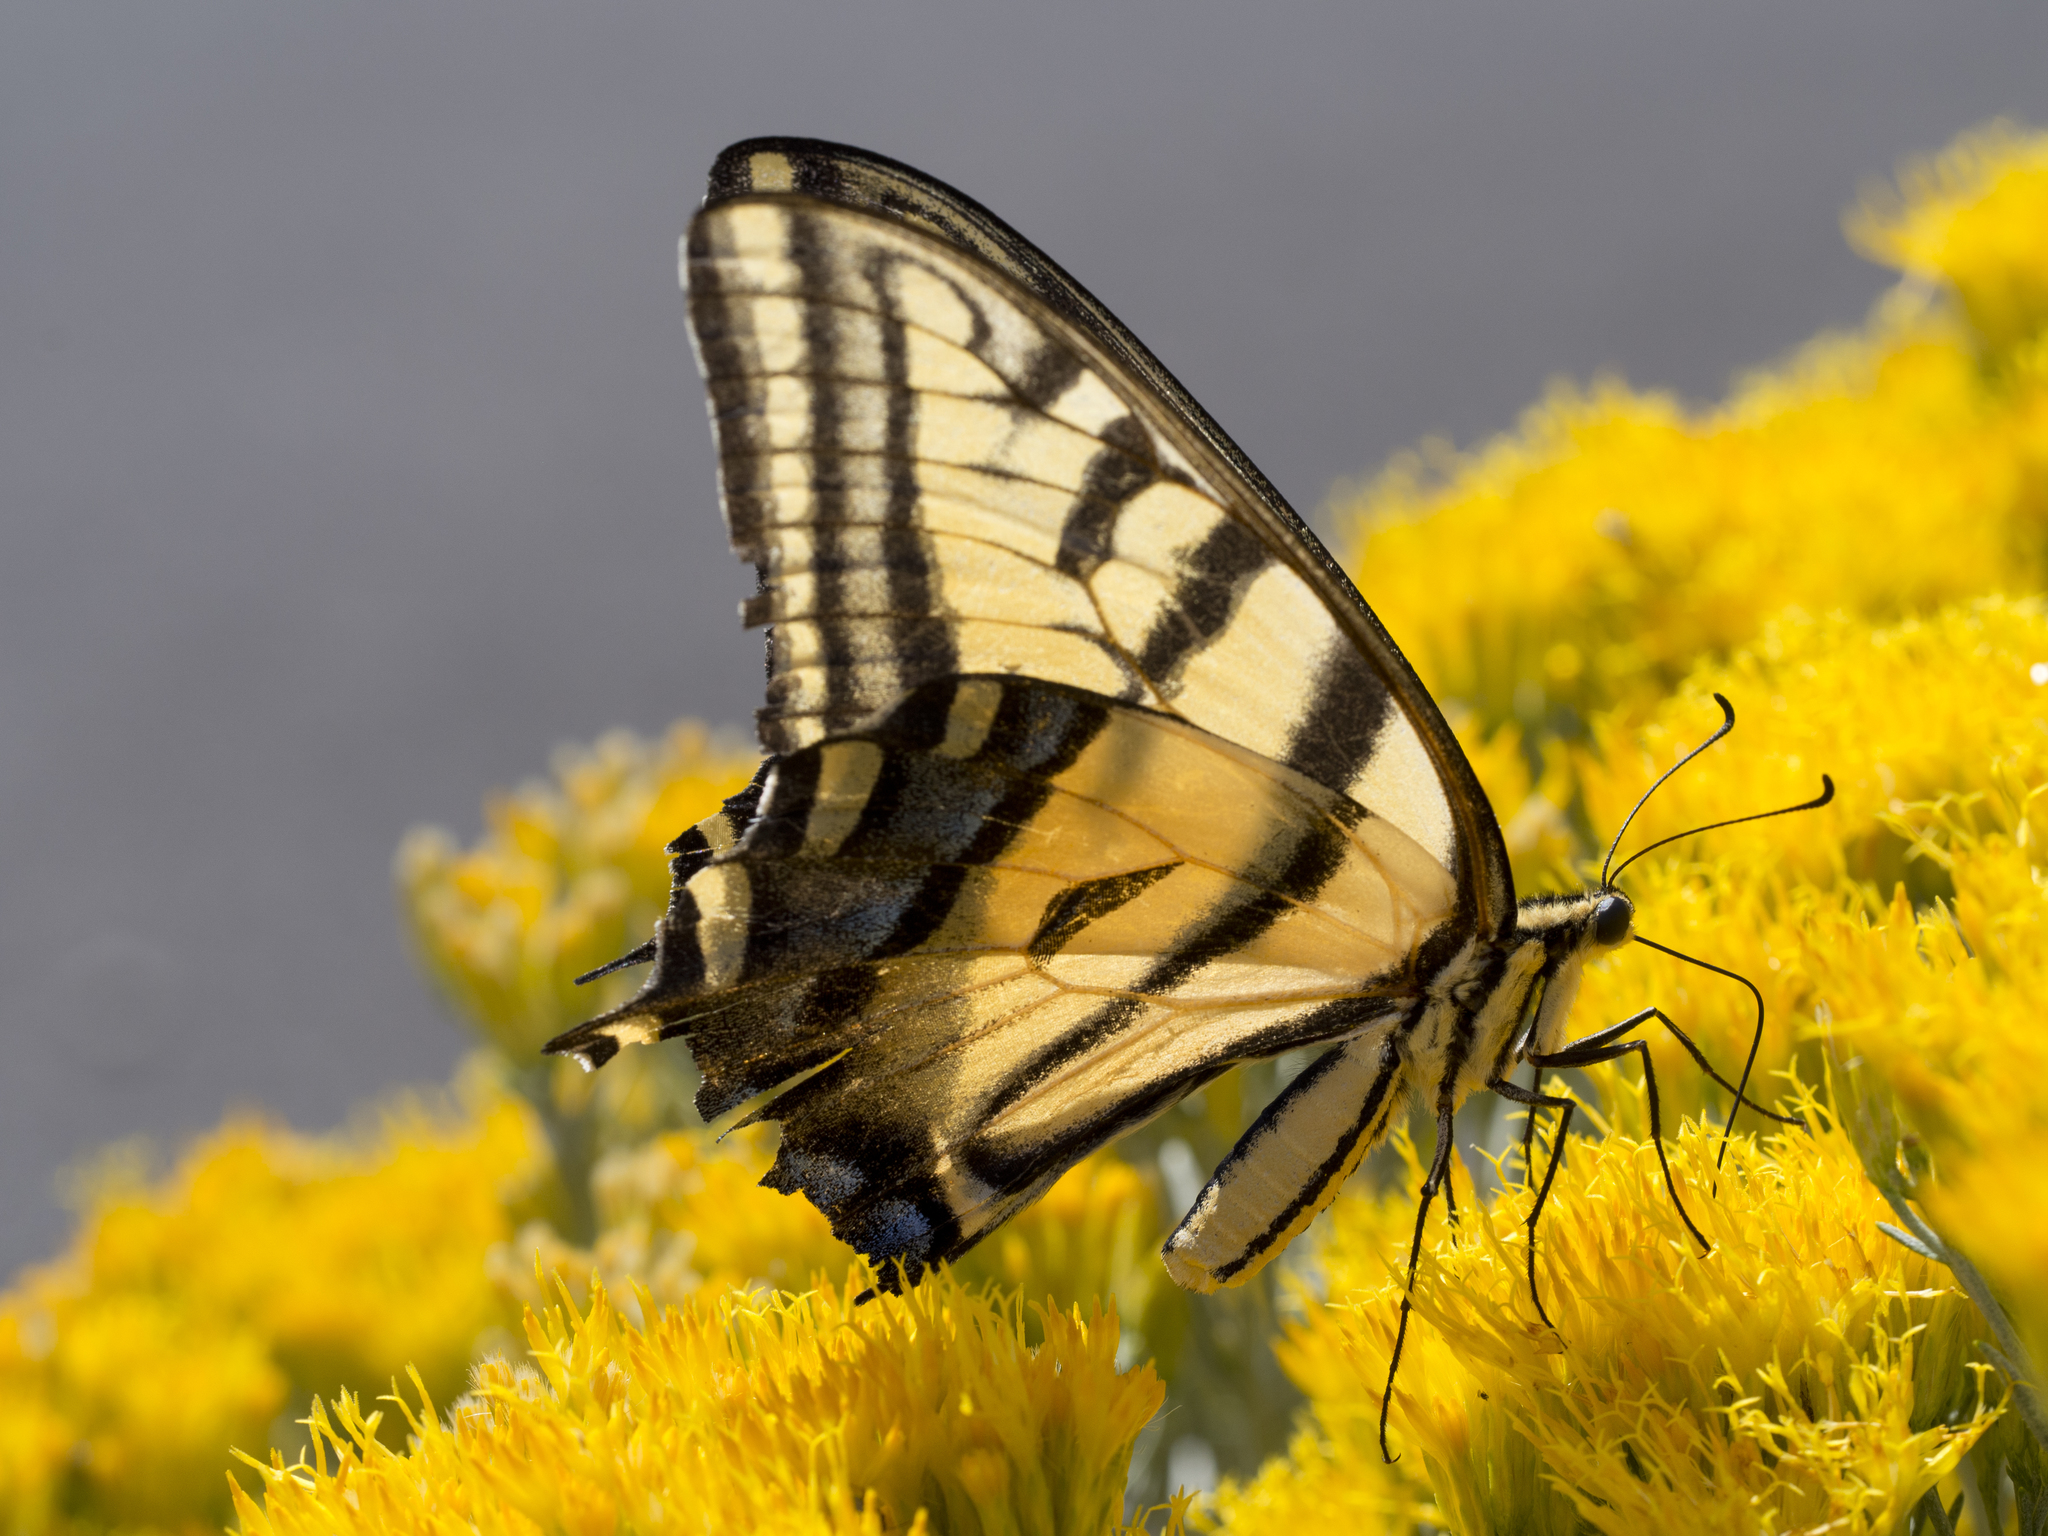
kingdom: Animalia
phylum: Arthropoda
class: Insecta
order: Lepidoptera
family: Papilionidae
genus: Papilio
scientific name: Papilio multicaudata
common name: Two-tailed tiger swallowtail
